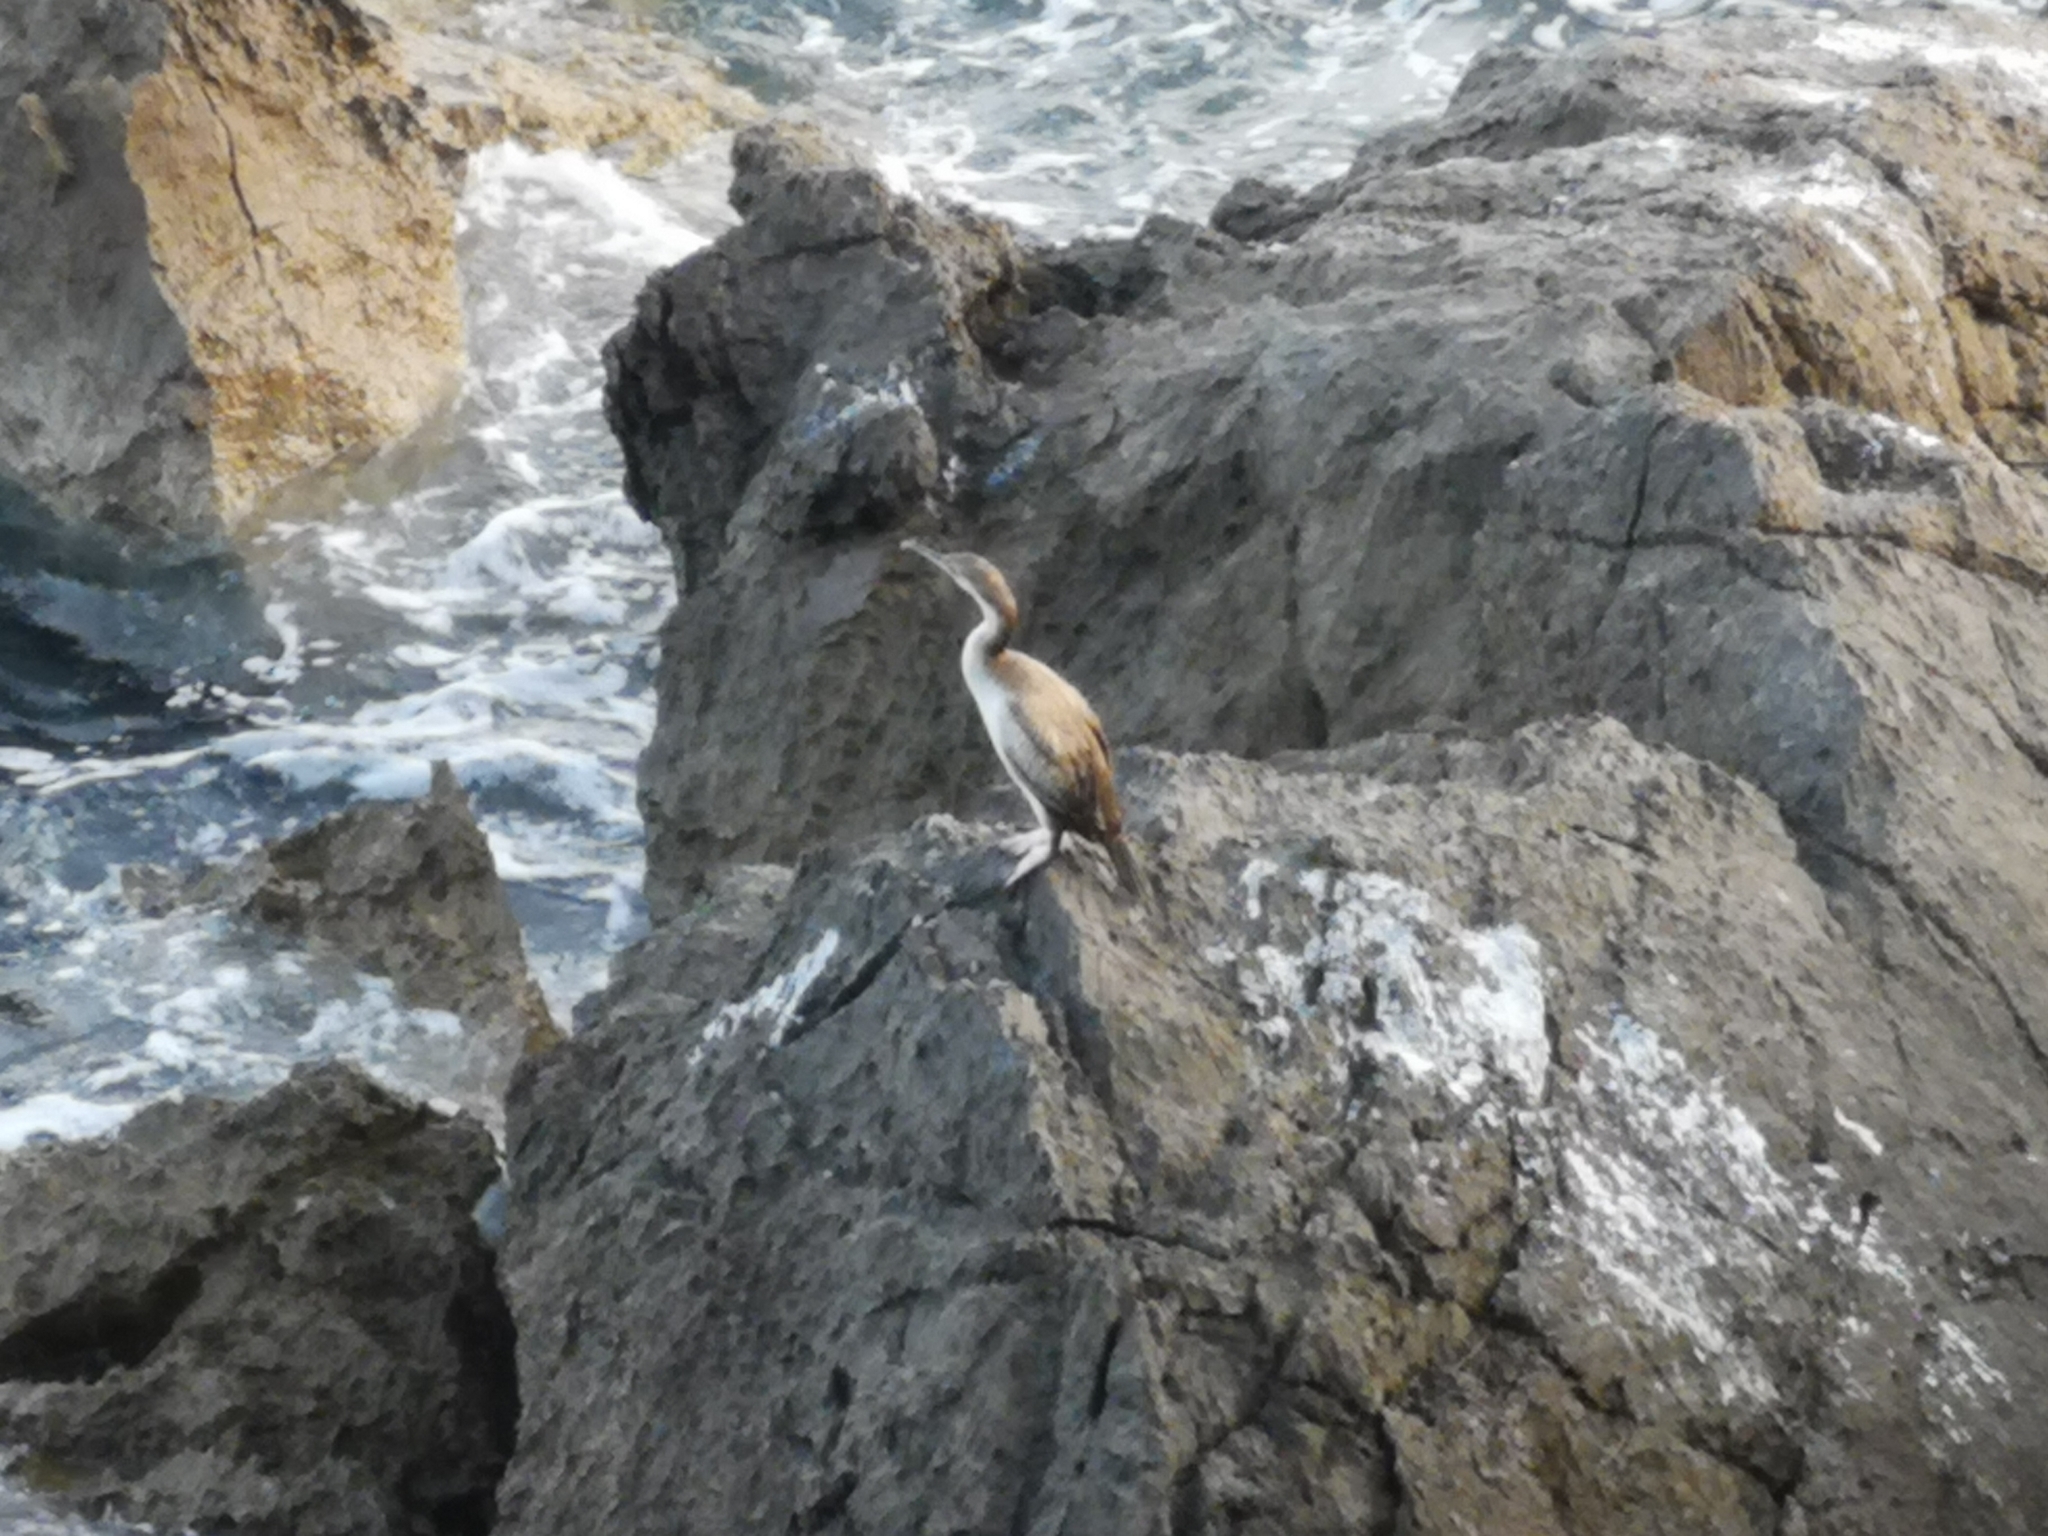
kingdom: Animalia
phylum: Chordata
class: Aves
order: Suliformes
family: Phalacrocoracidae
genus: Phalacrocorax
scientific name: Phalacrocorax aristotelis
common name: European shag
